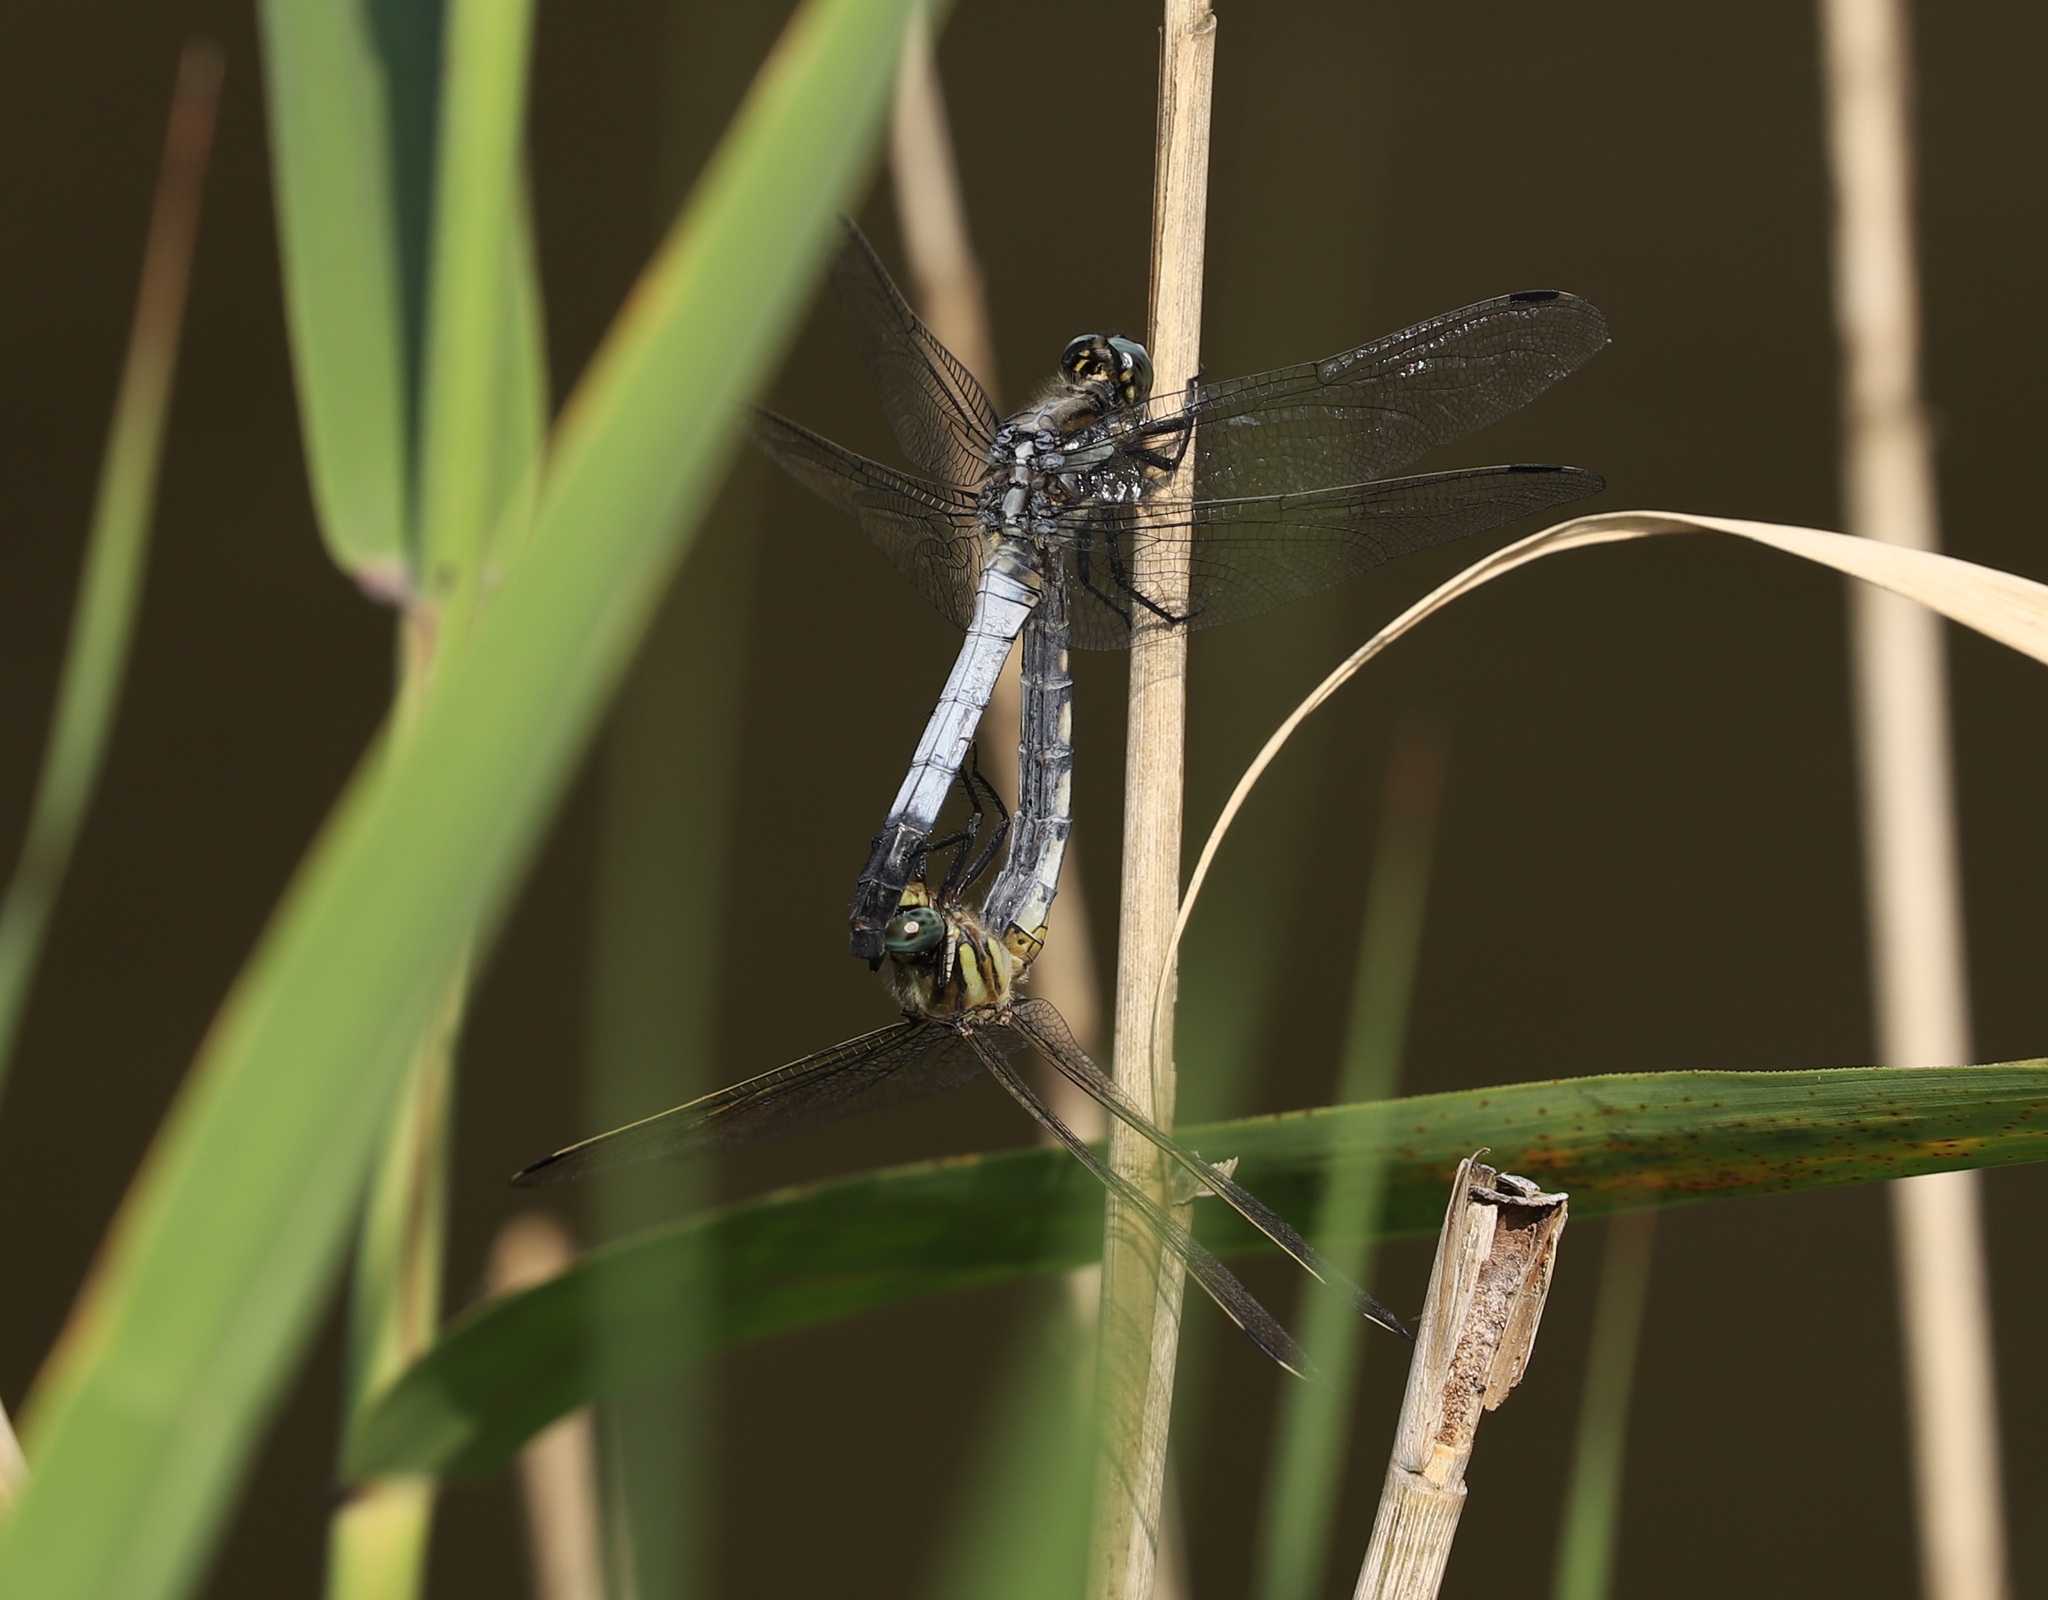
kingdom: Animalia
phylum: Arthropoda
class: Insecta
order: Odonata
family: Libellulidae
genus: Orthetrum
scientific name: Orthetrum albistylum
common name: White-tailed skimmer
